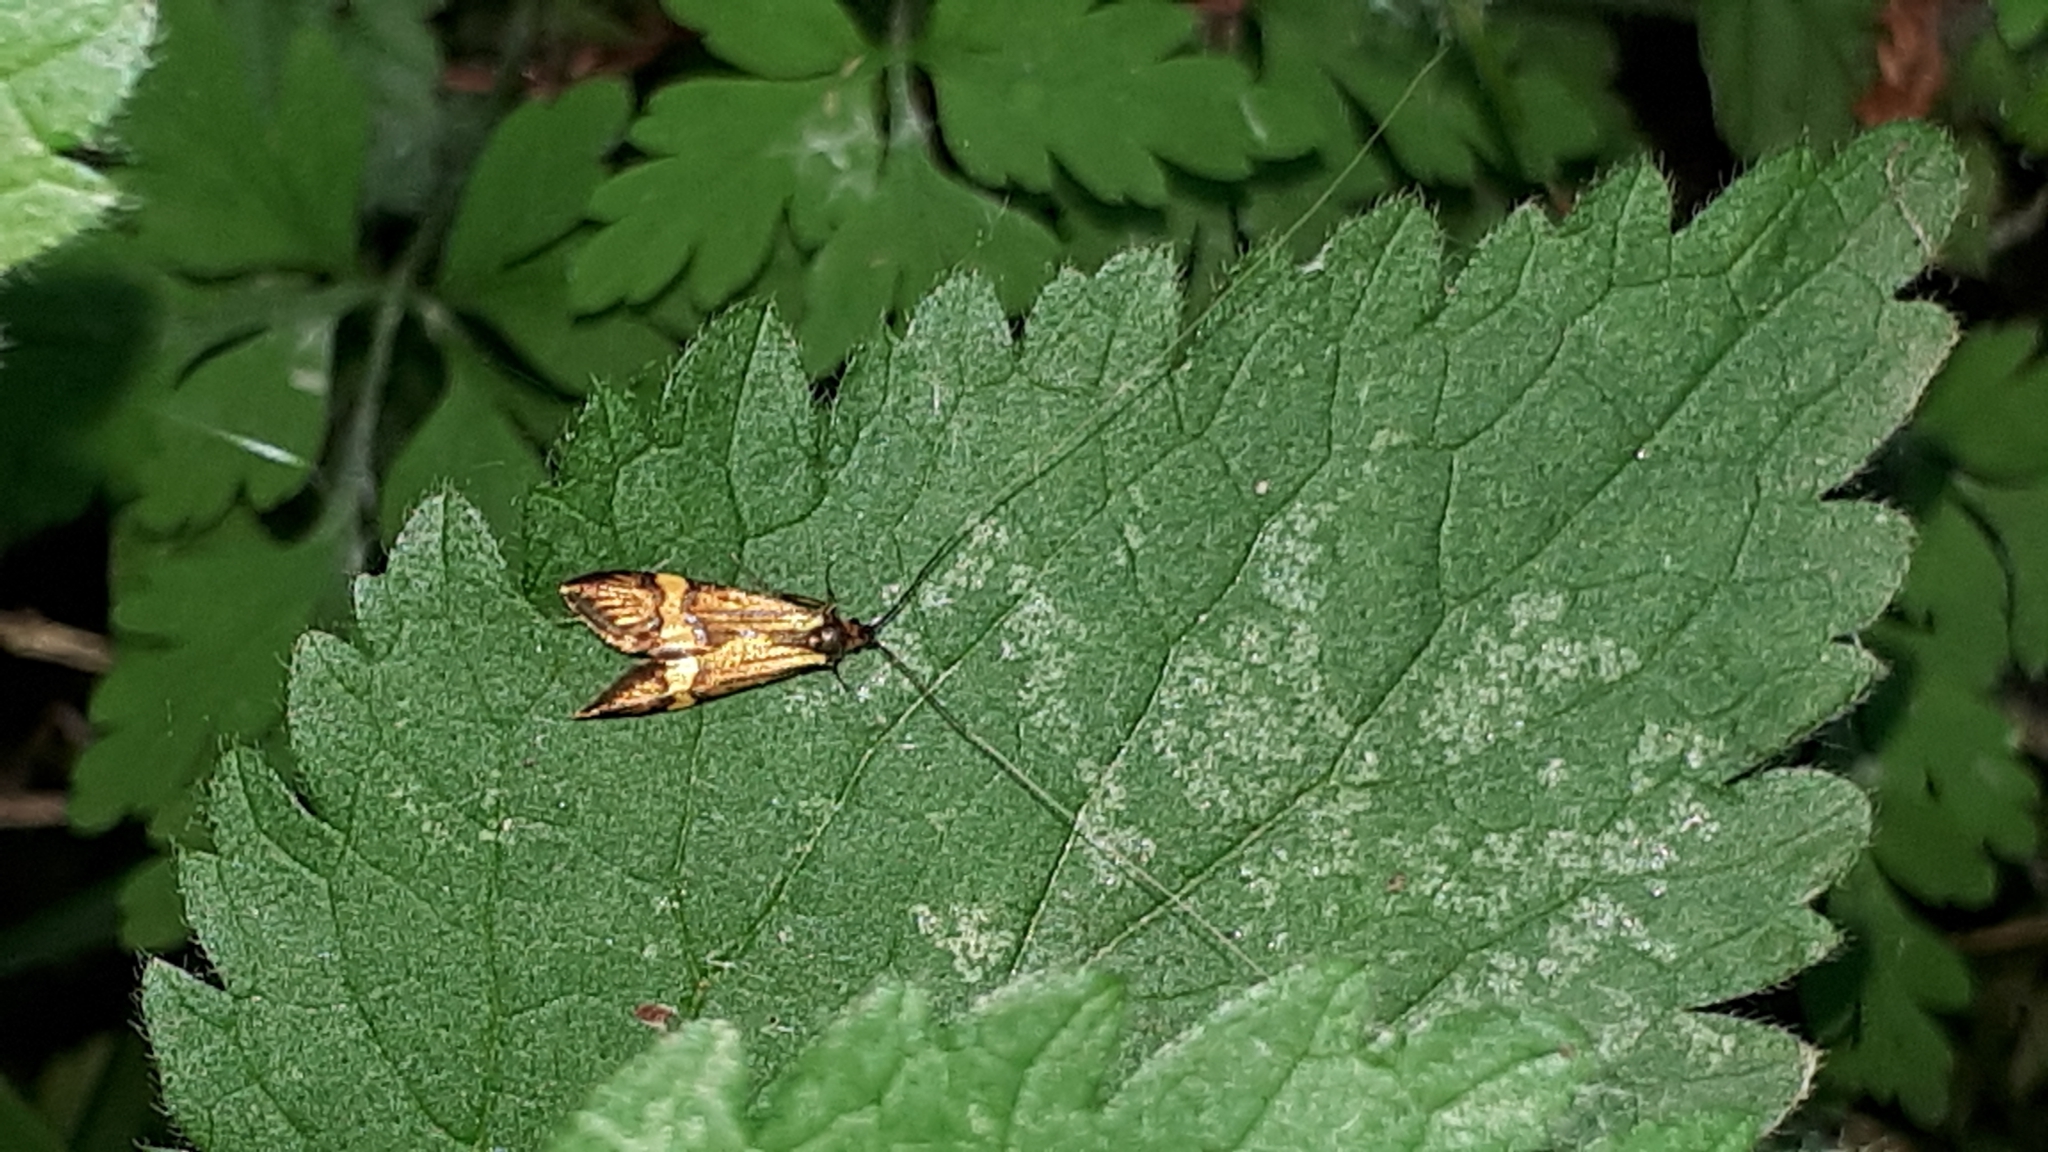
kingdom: Animalia
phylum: Arthropoda
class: Insecta
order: Lepidoptera
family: Adelidae
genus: Nemophora
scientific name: Nemophora
